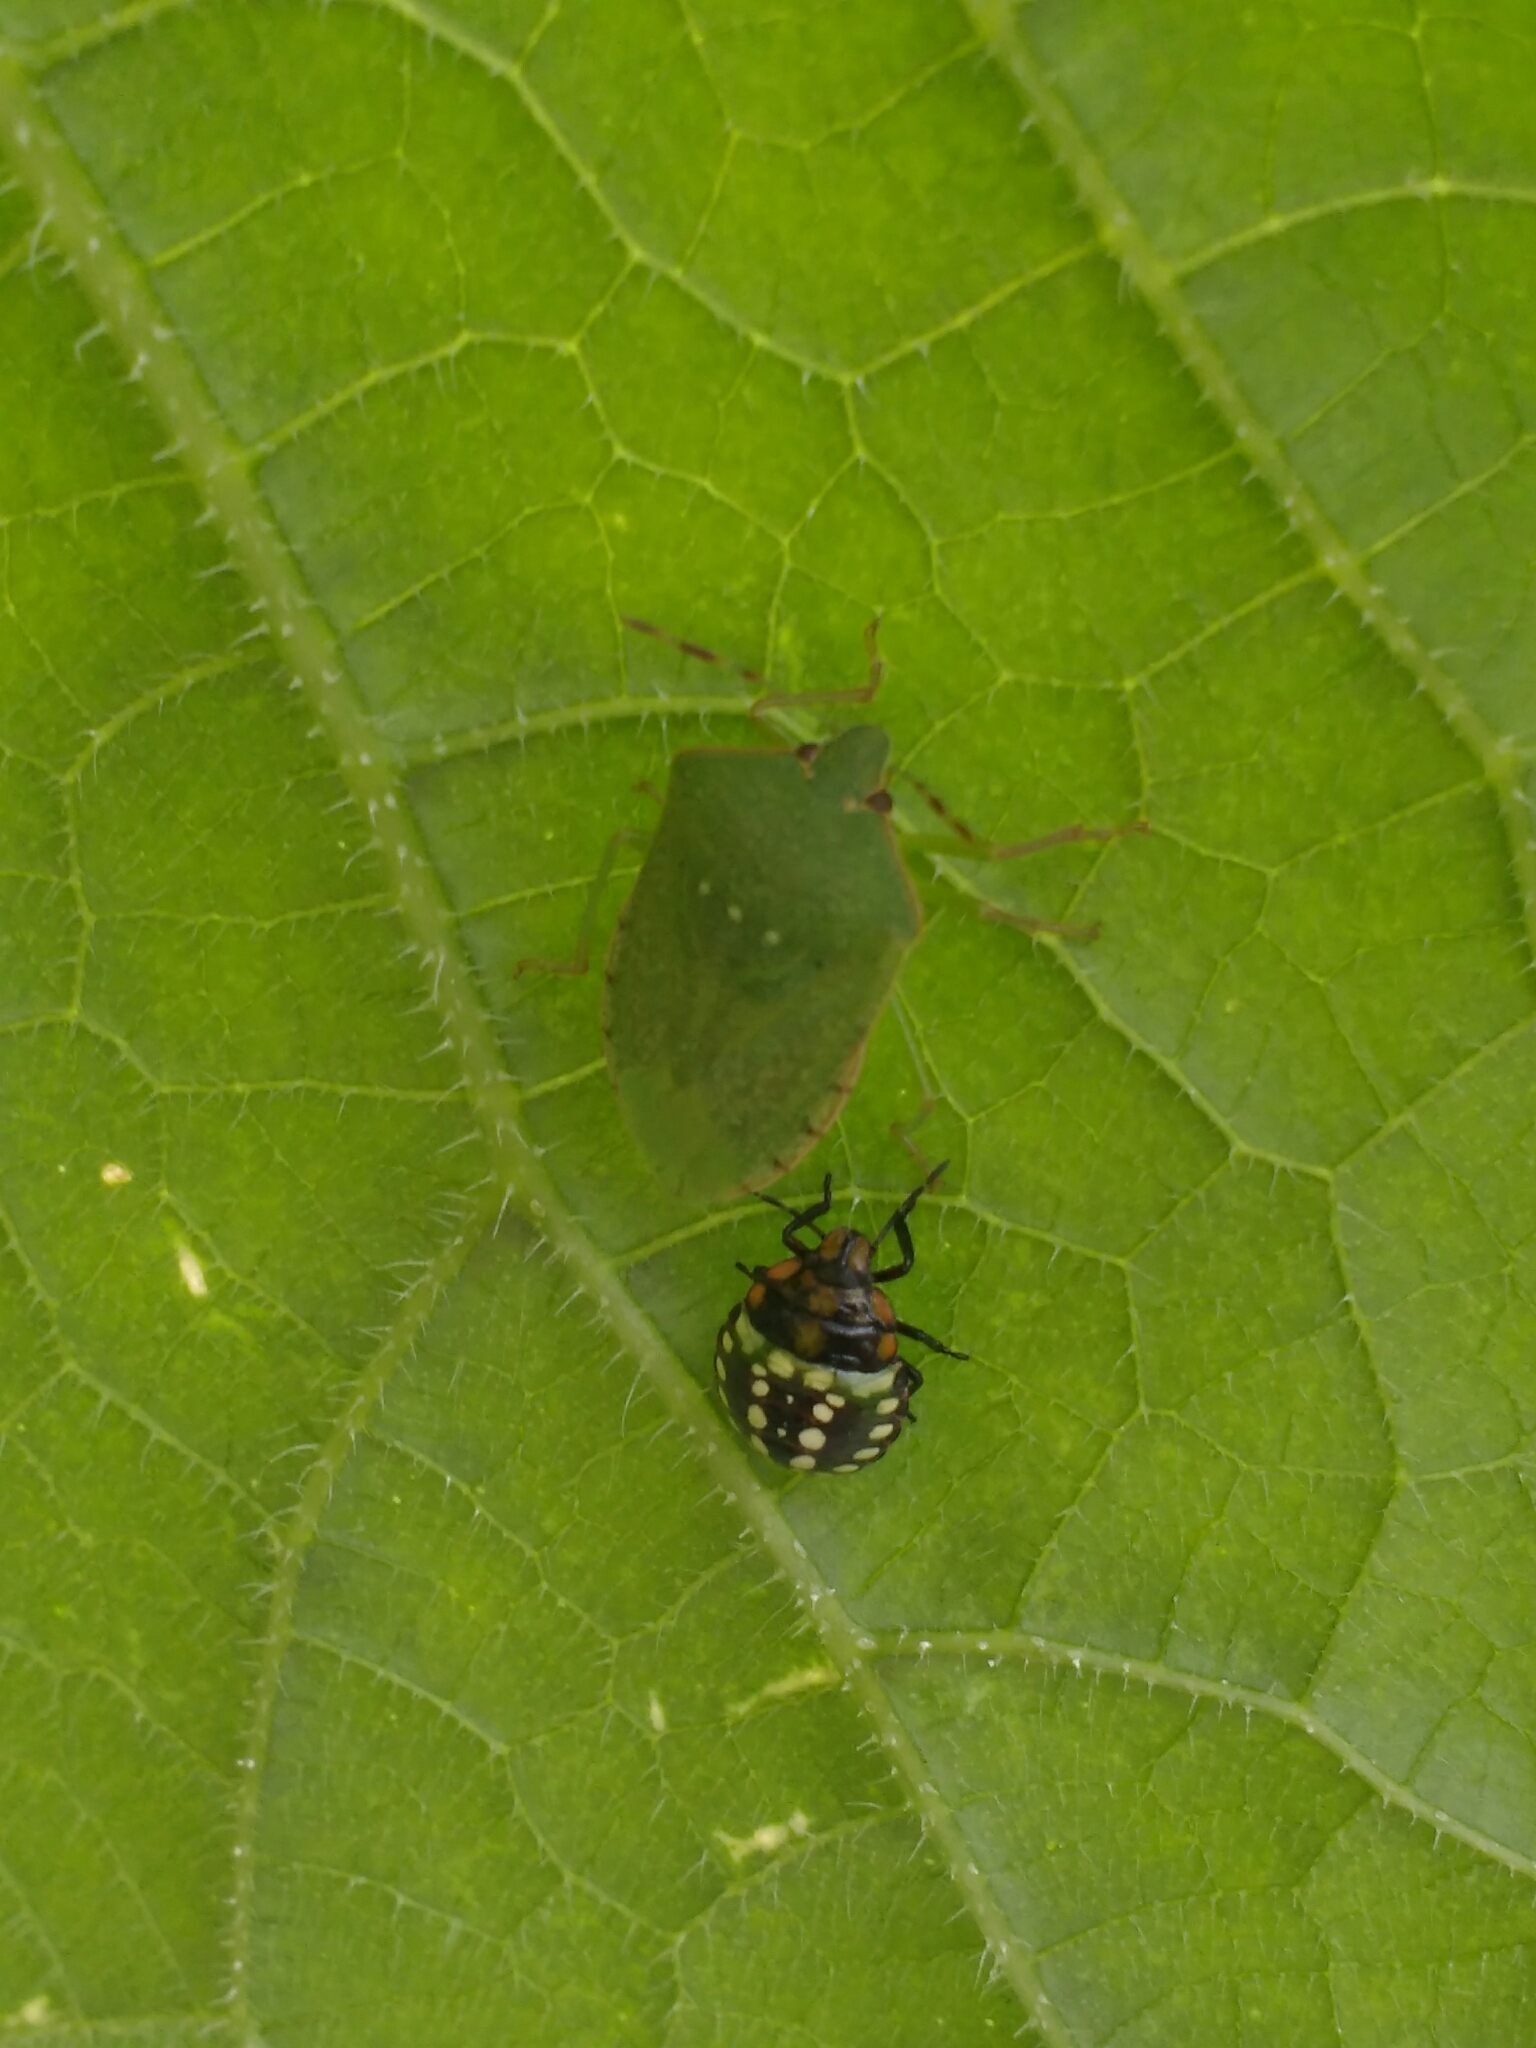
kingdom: Animalia
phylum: Arthropoda
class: Insecta
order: Hemiptera
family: Pentatomidae
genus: Nezara
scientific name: Nezara viridula
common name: Southern green stink bug
